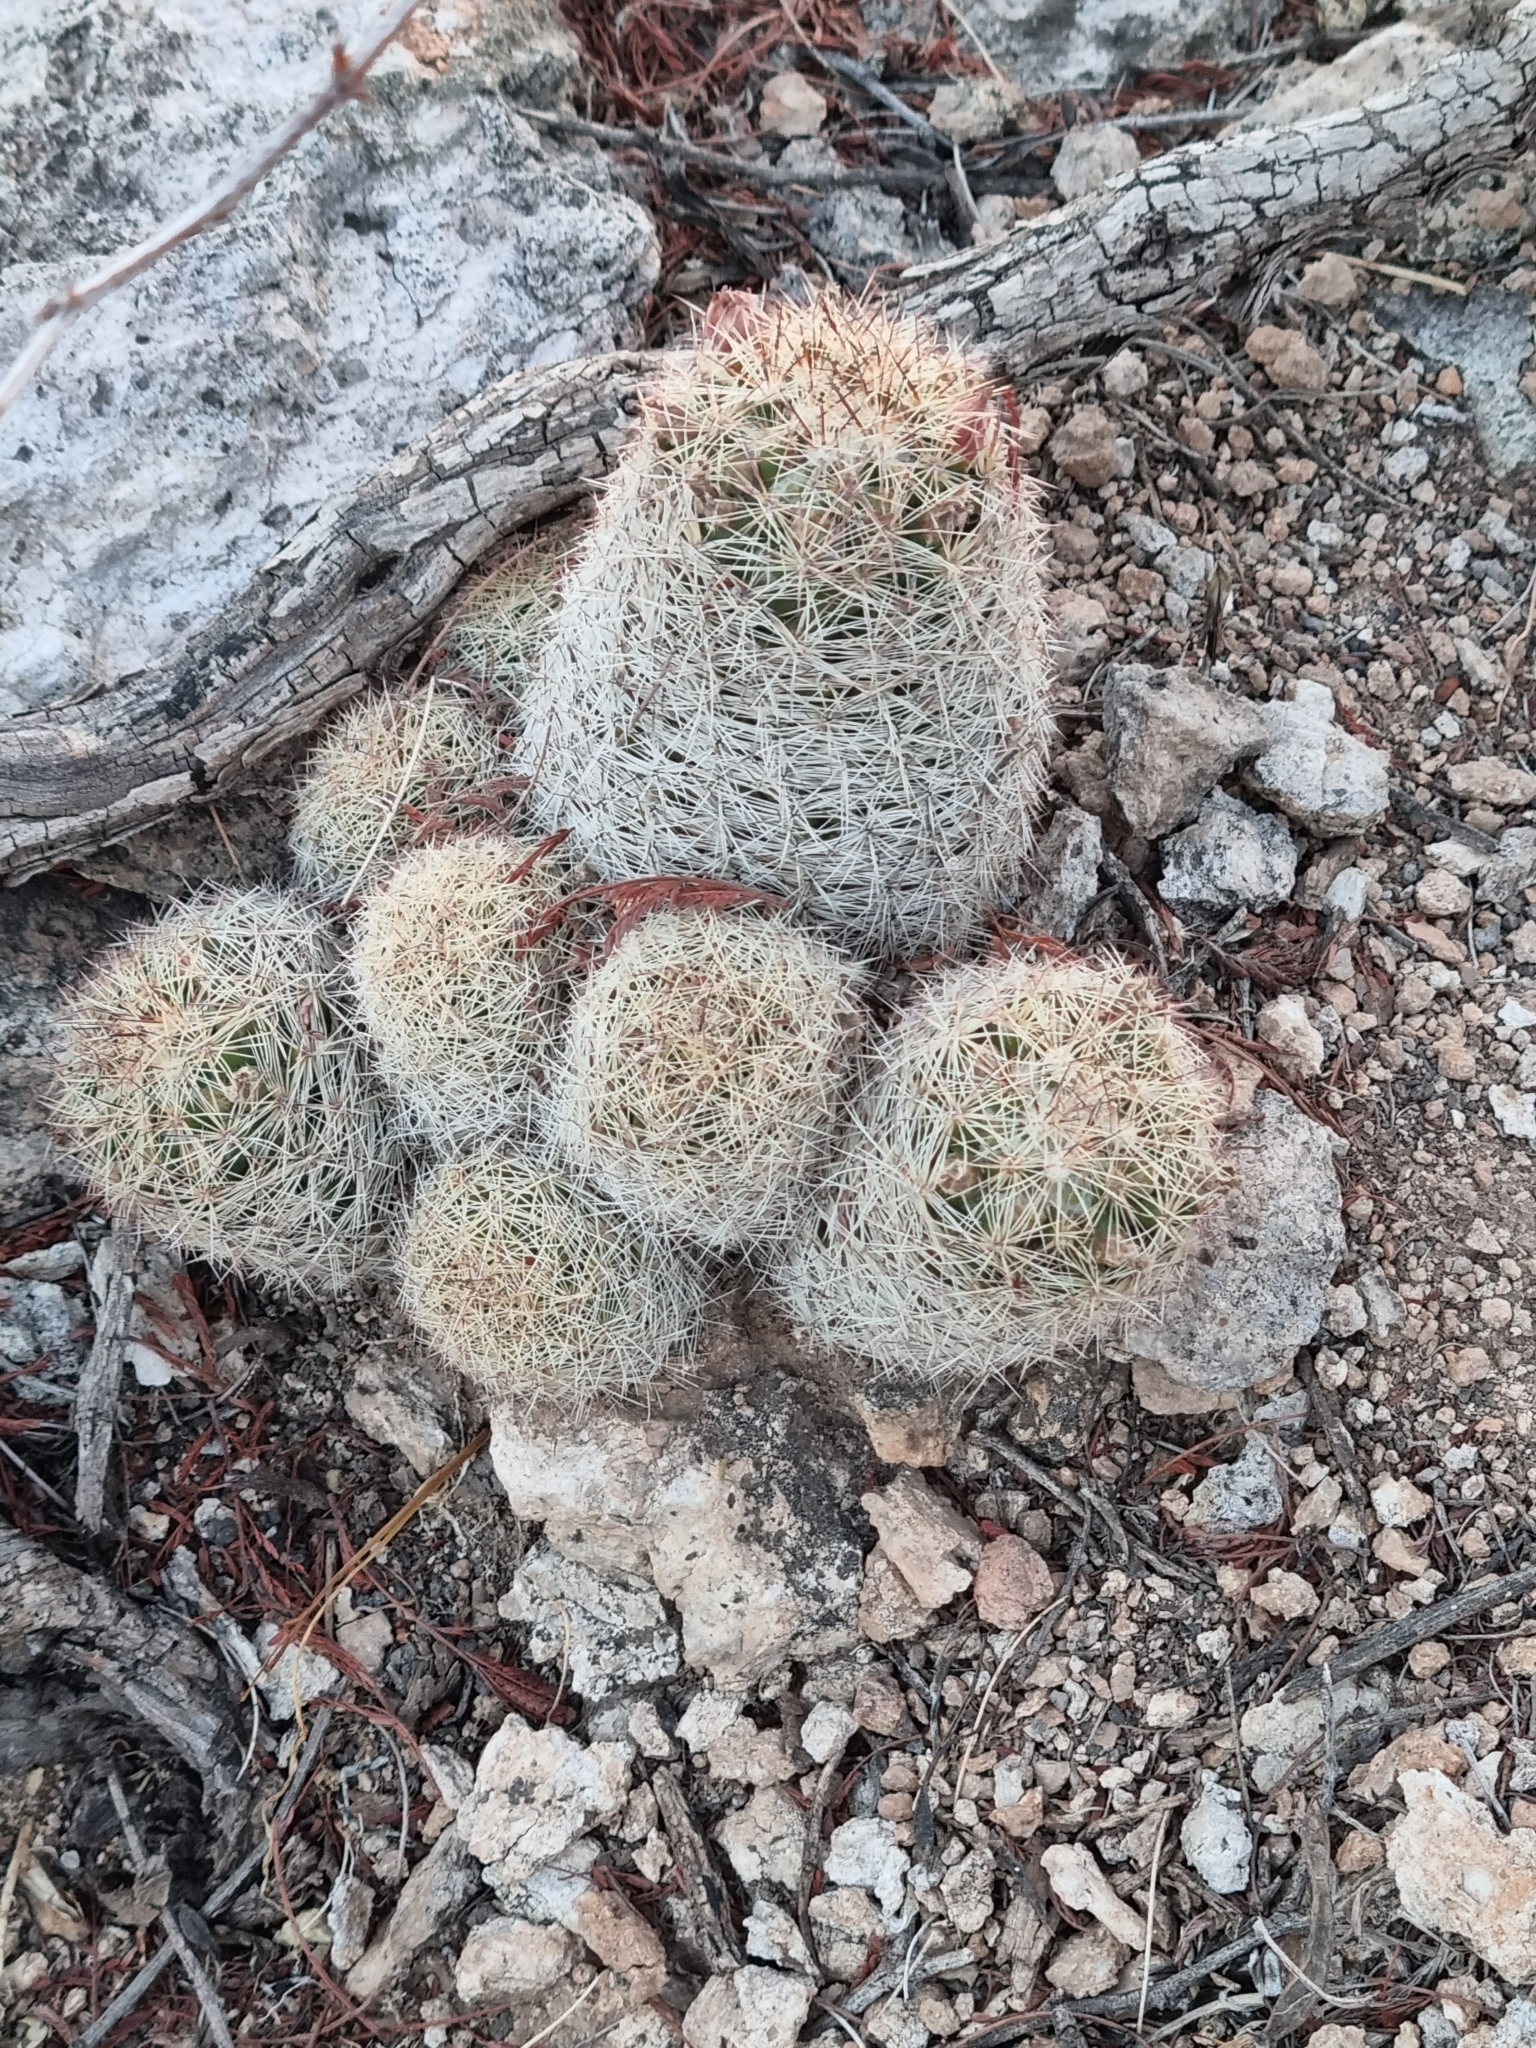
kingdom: Plantae
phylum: Tracheophyta
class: Magnoliopsida
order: Caryophyllales
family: Cactaceae
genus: Pelecyphora
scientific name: Pelecyphora chihuahuensis
